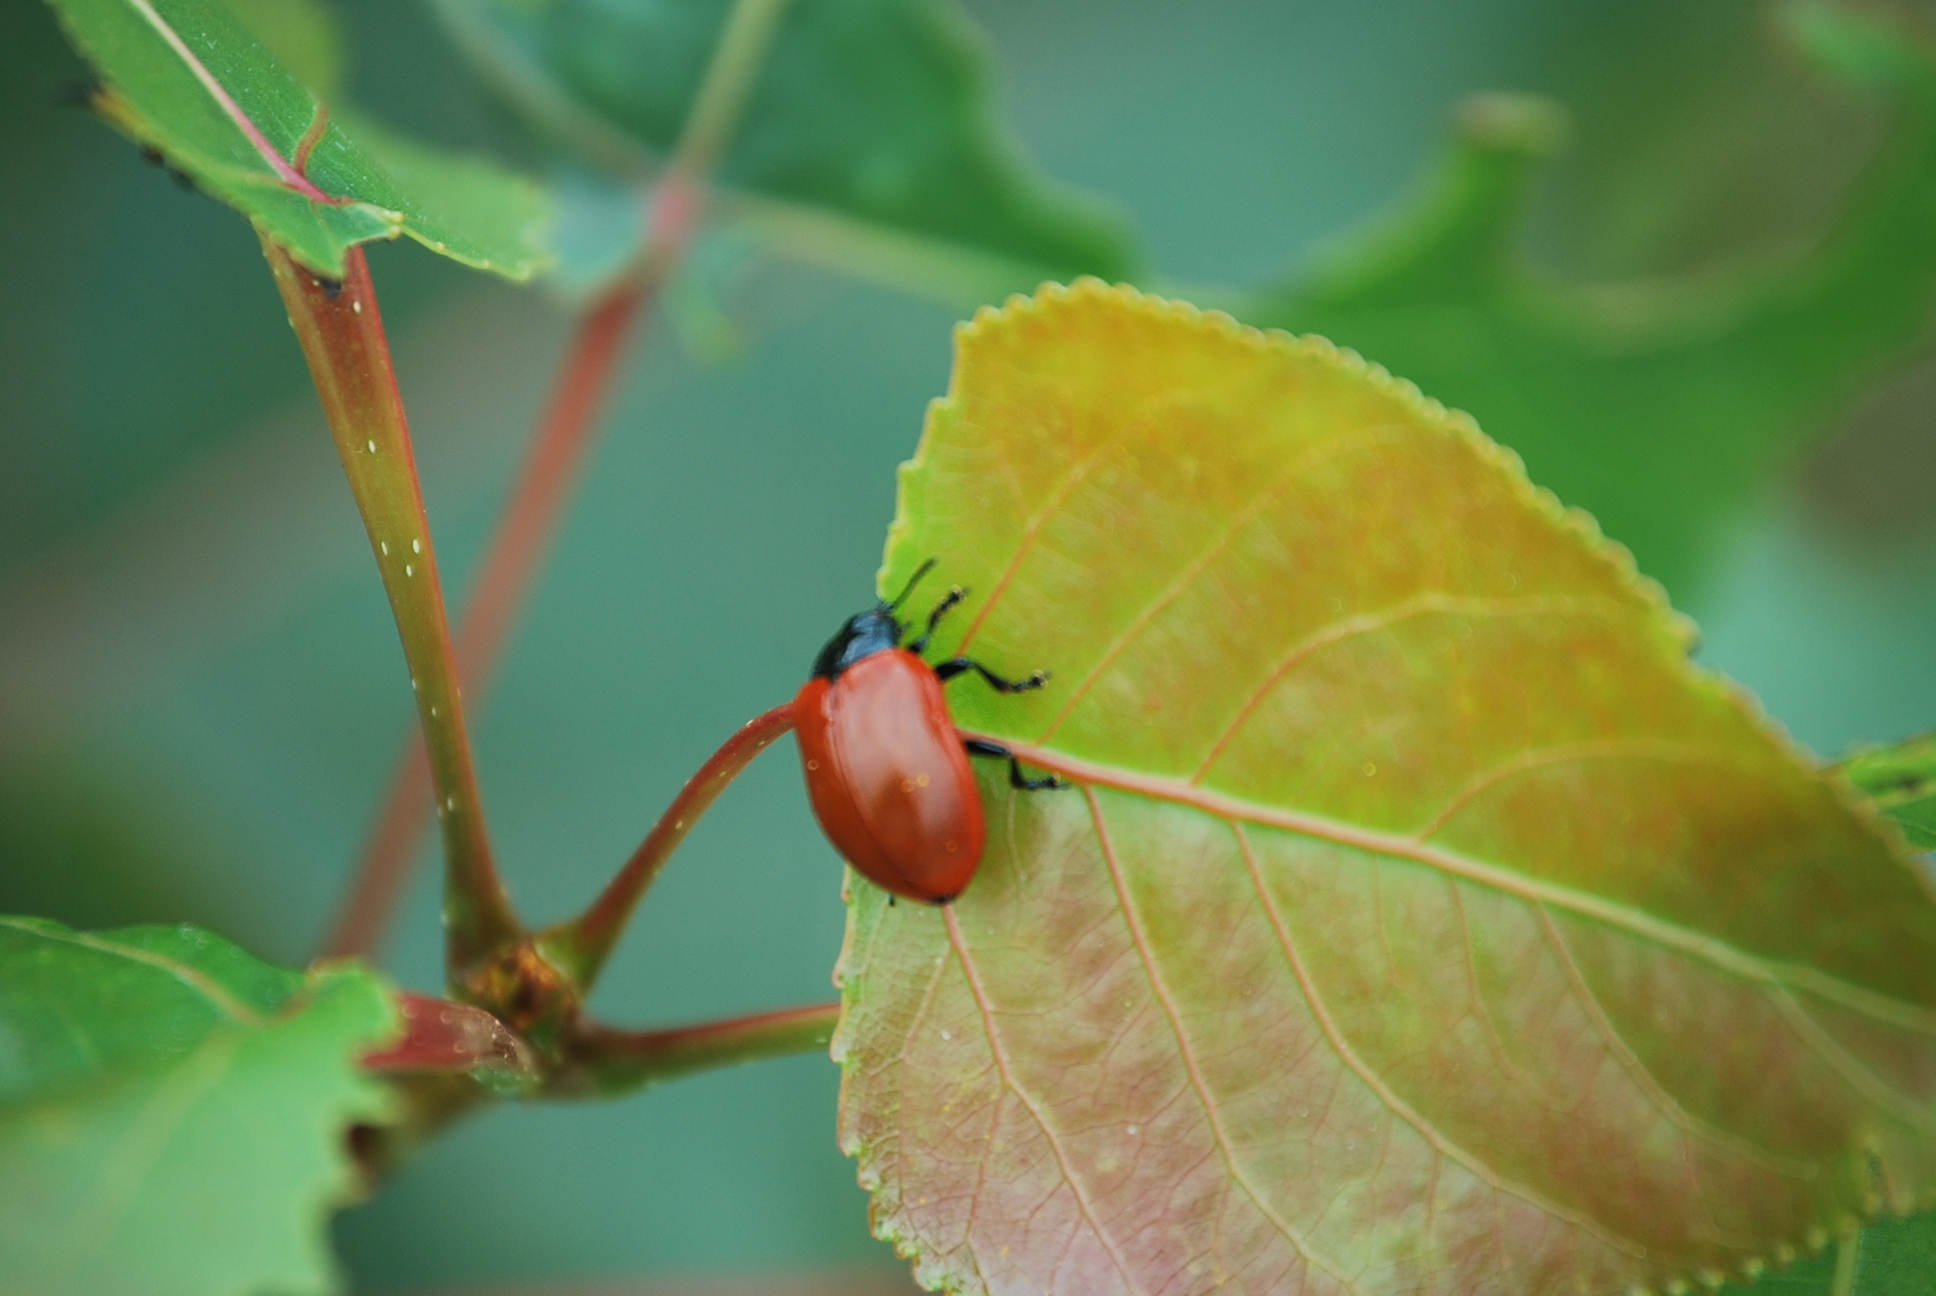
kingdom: Animalia
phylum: Arthropoda
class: Insecta
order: Coleoptera
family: Chrysomelidae
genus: Chrysomela
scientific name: Chrysomela populi
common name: Red poplar leaf beetle
